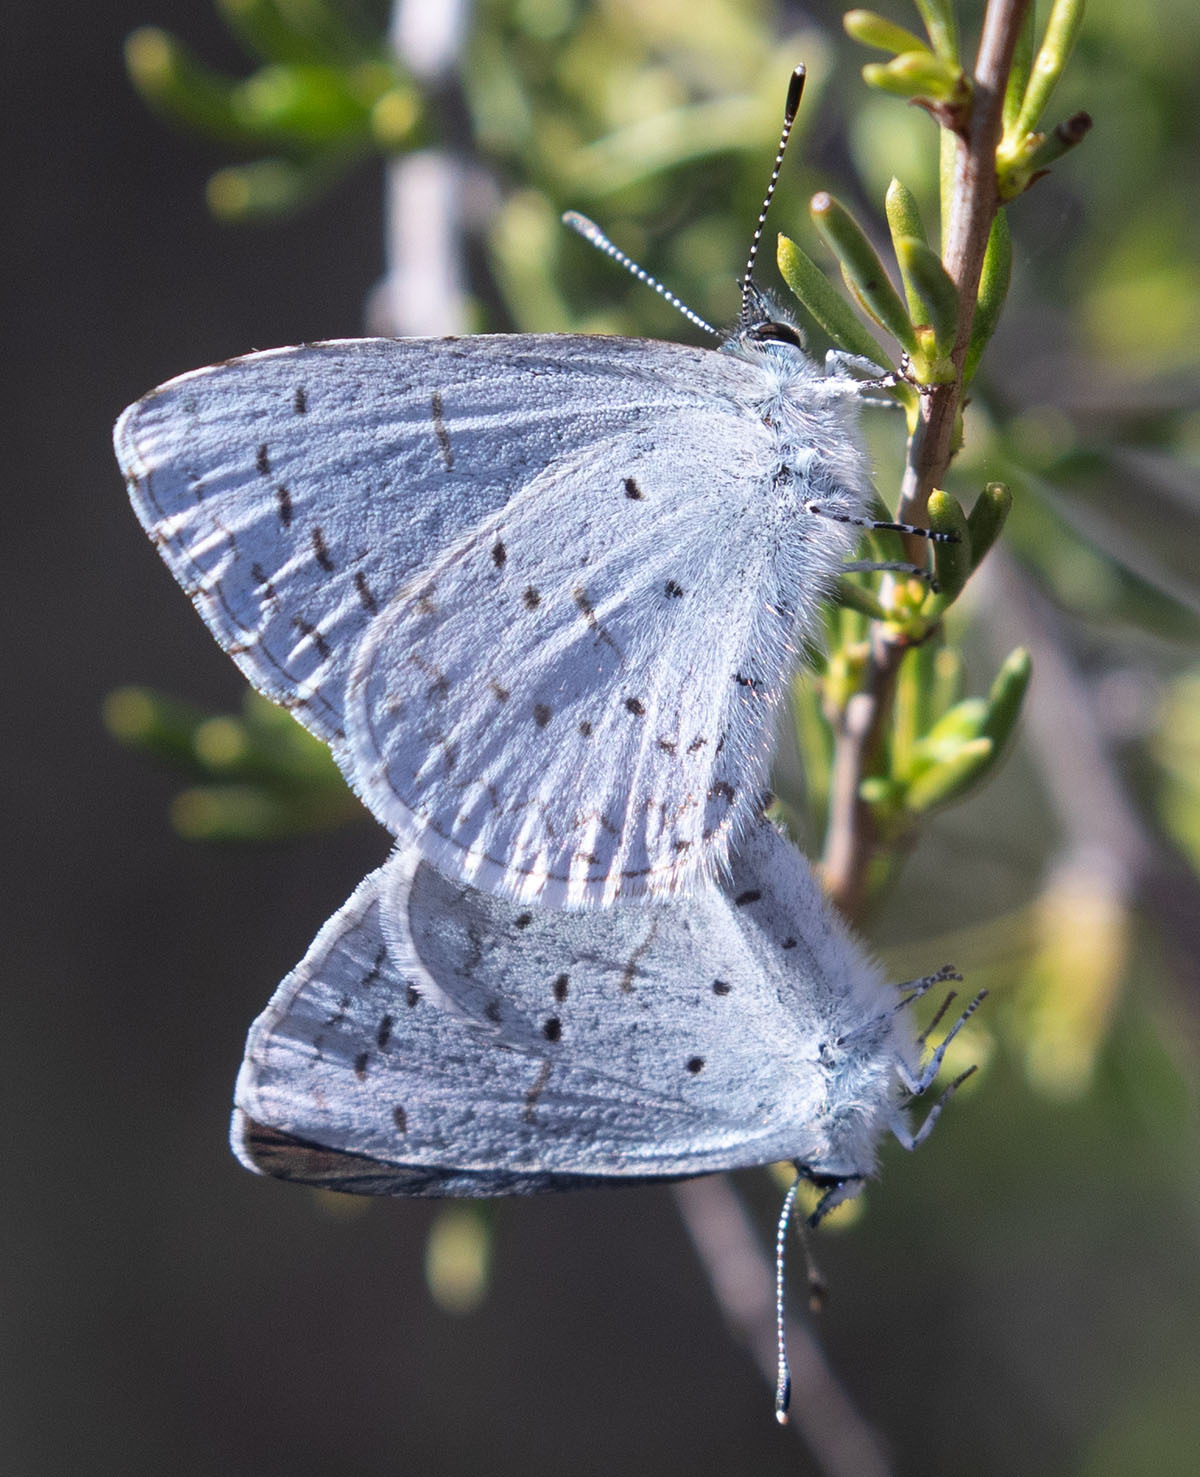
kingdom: Animalia
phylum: Arthropoda
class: Insecta
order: Lepidoptera
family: Lycaenidae
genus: Celastrina
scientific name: Celastrina ladon
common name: Spring azure
